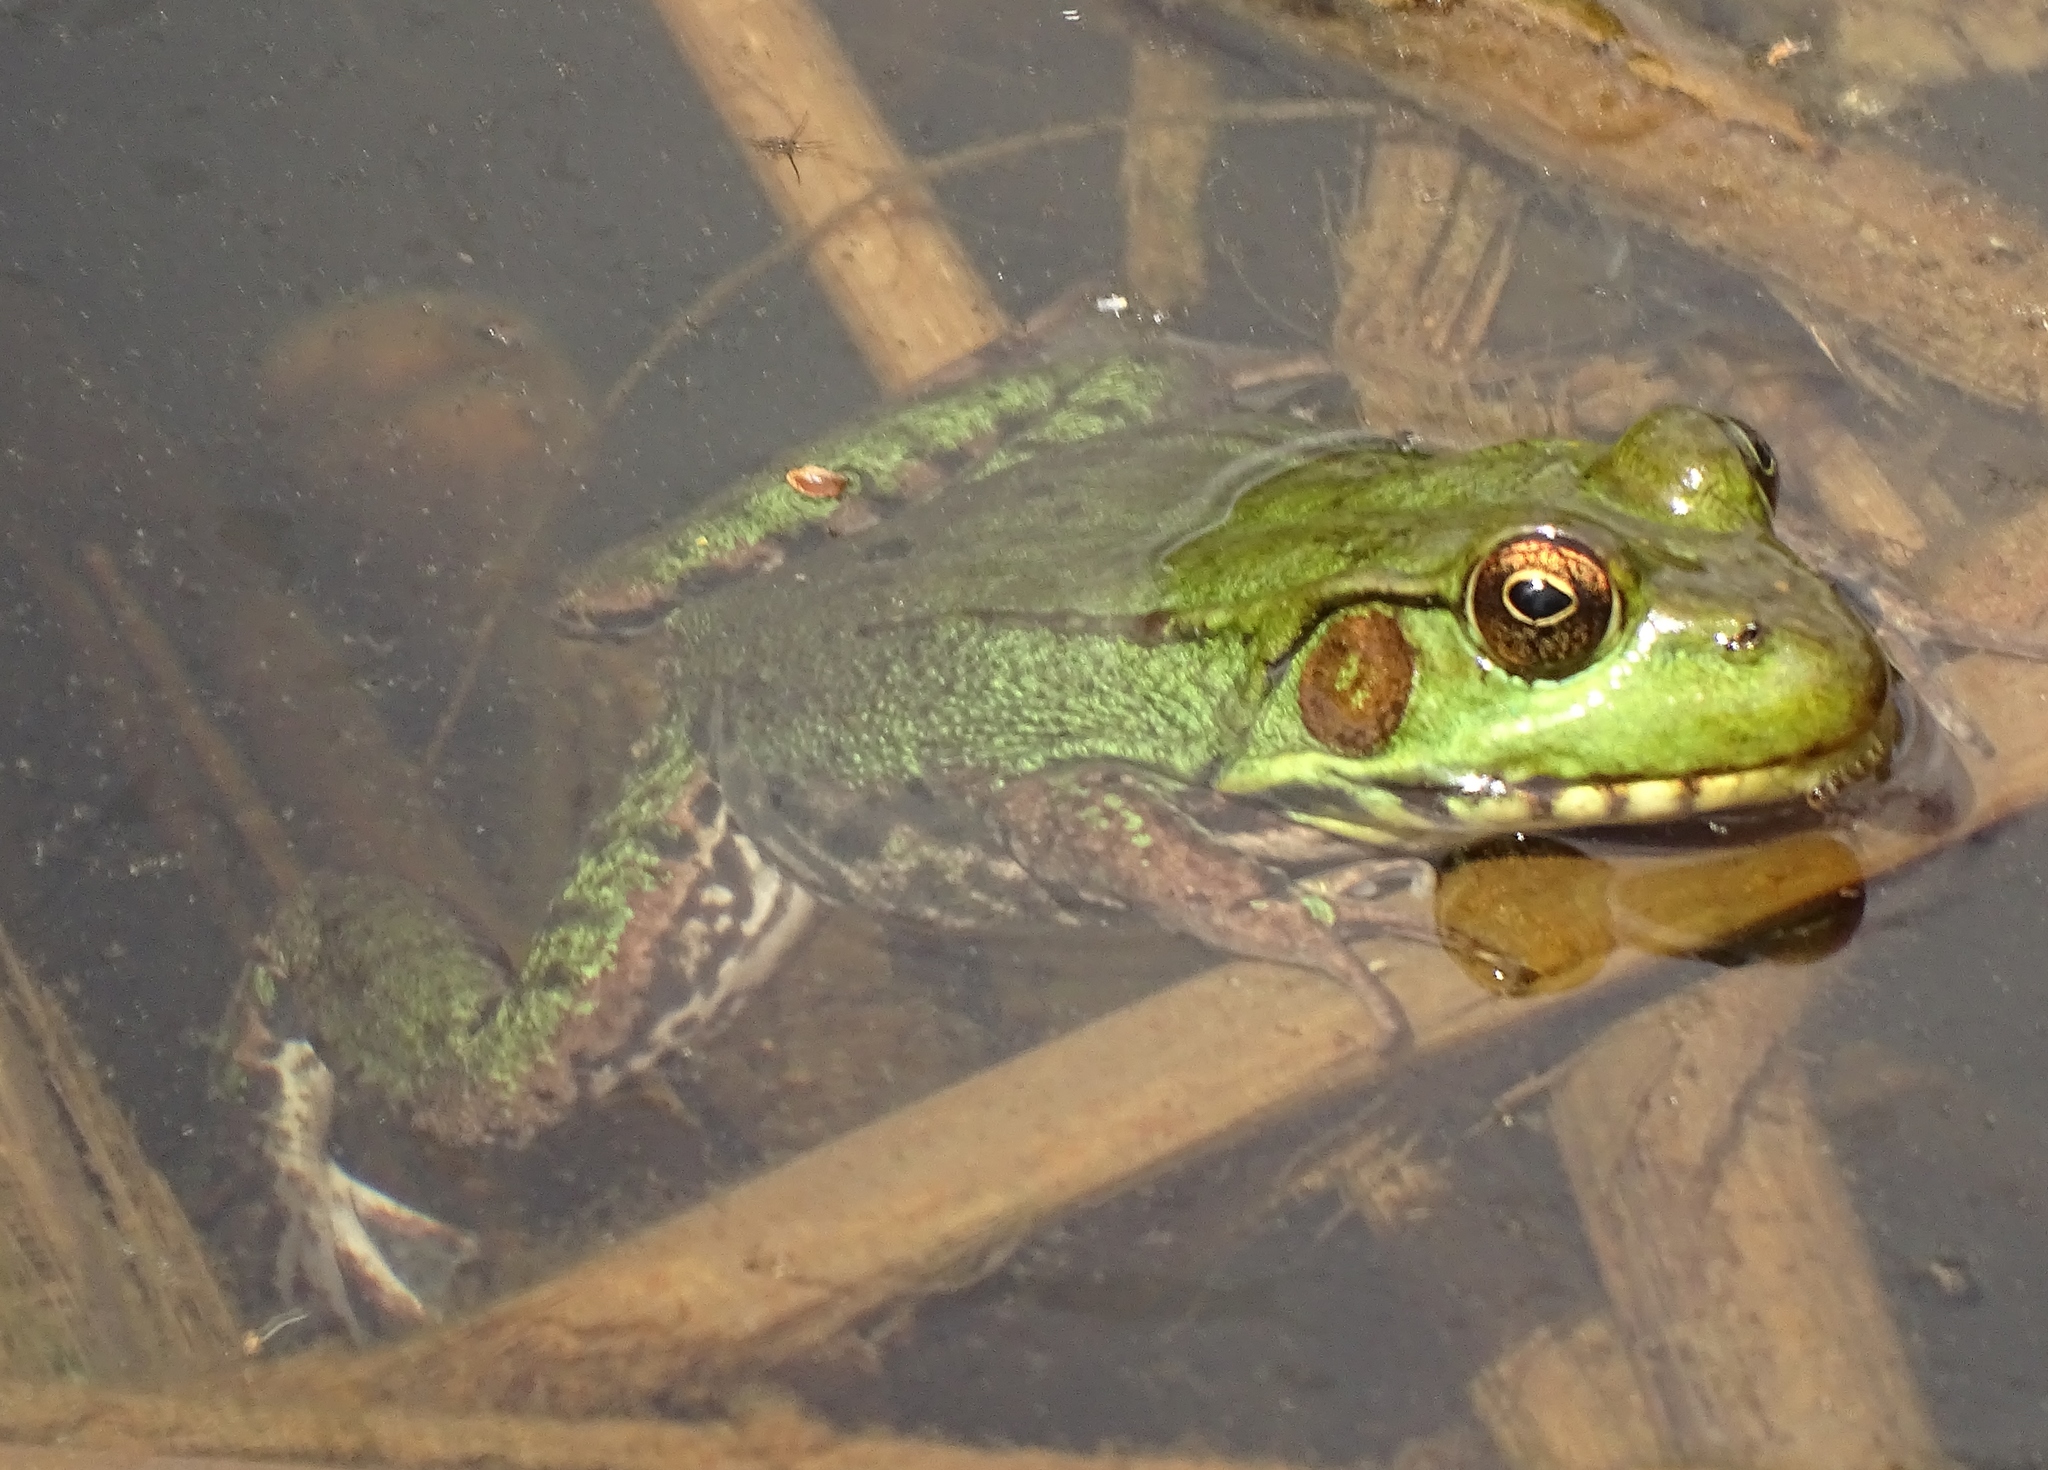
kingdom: Animalia
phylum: Chordata
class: Amphibia
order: Anura
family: Ranidae
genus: Lithobates
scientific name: Lithobates clamitans
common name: Green frog
